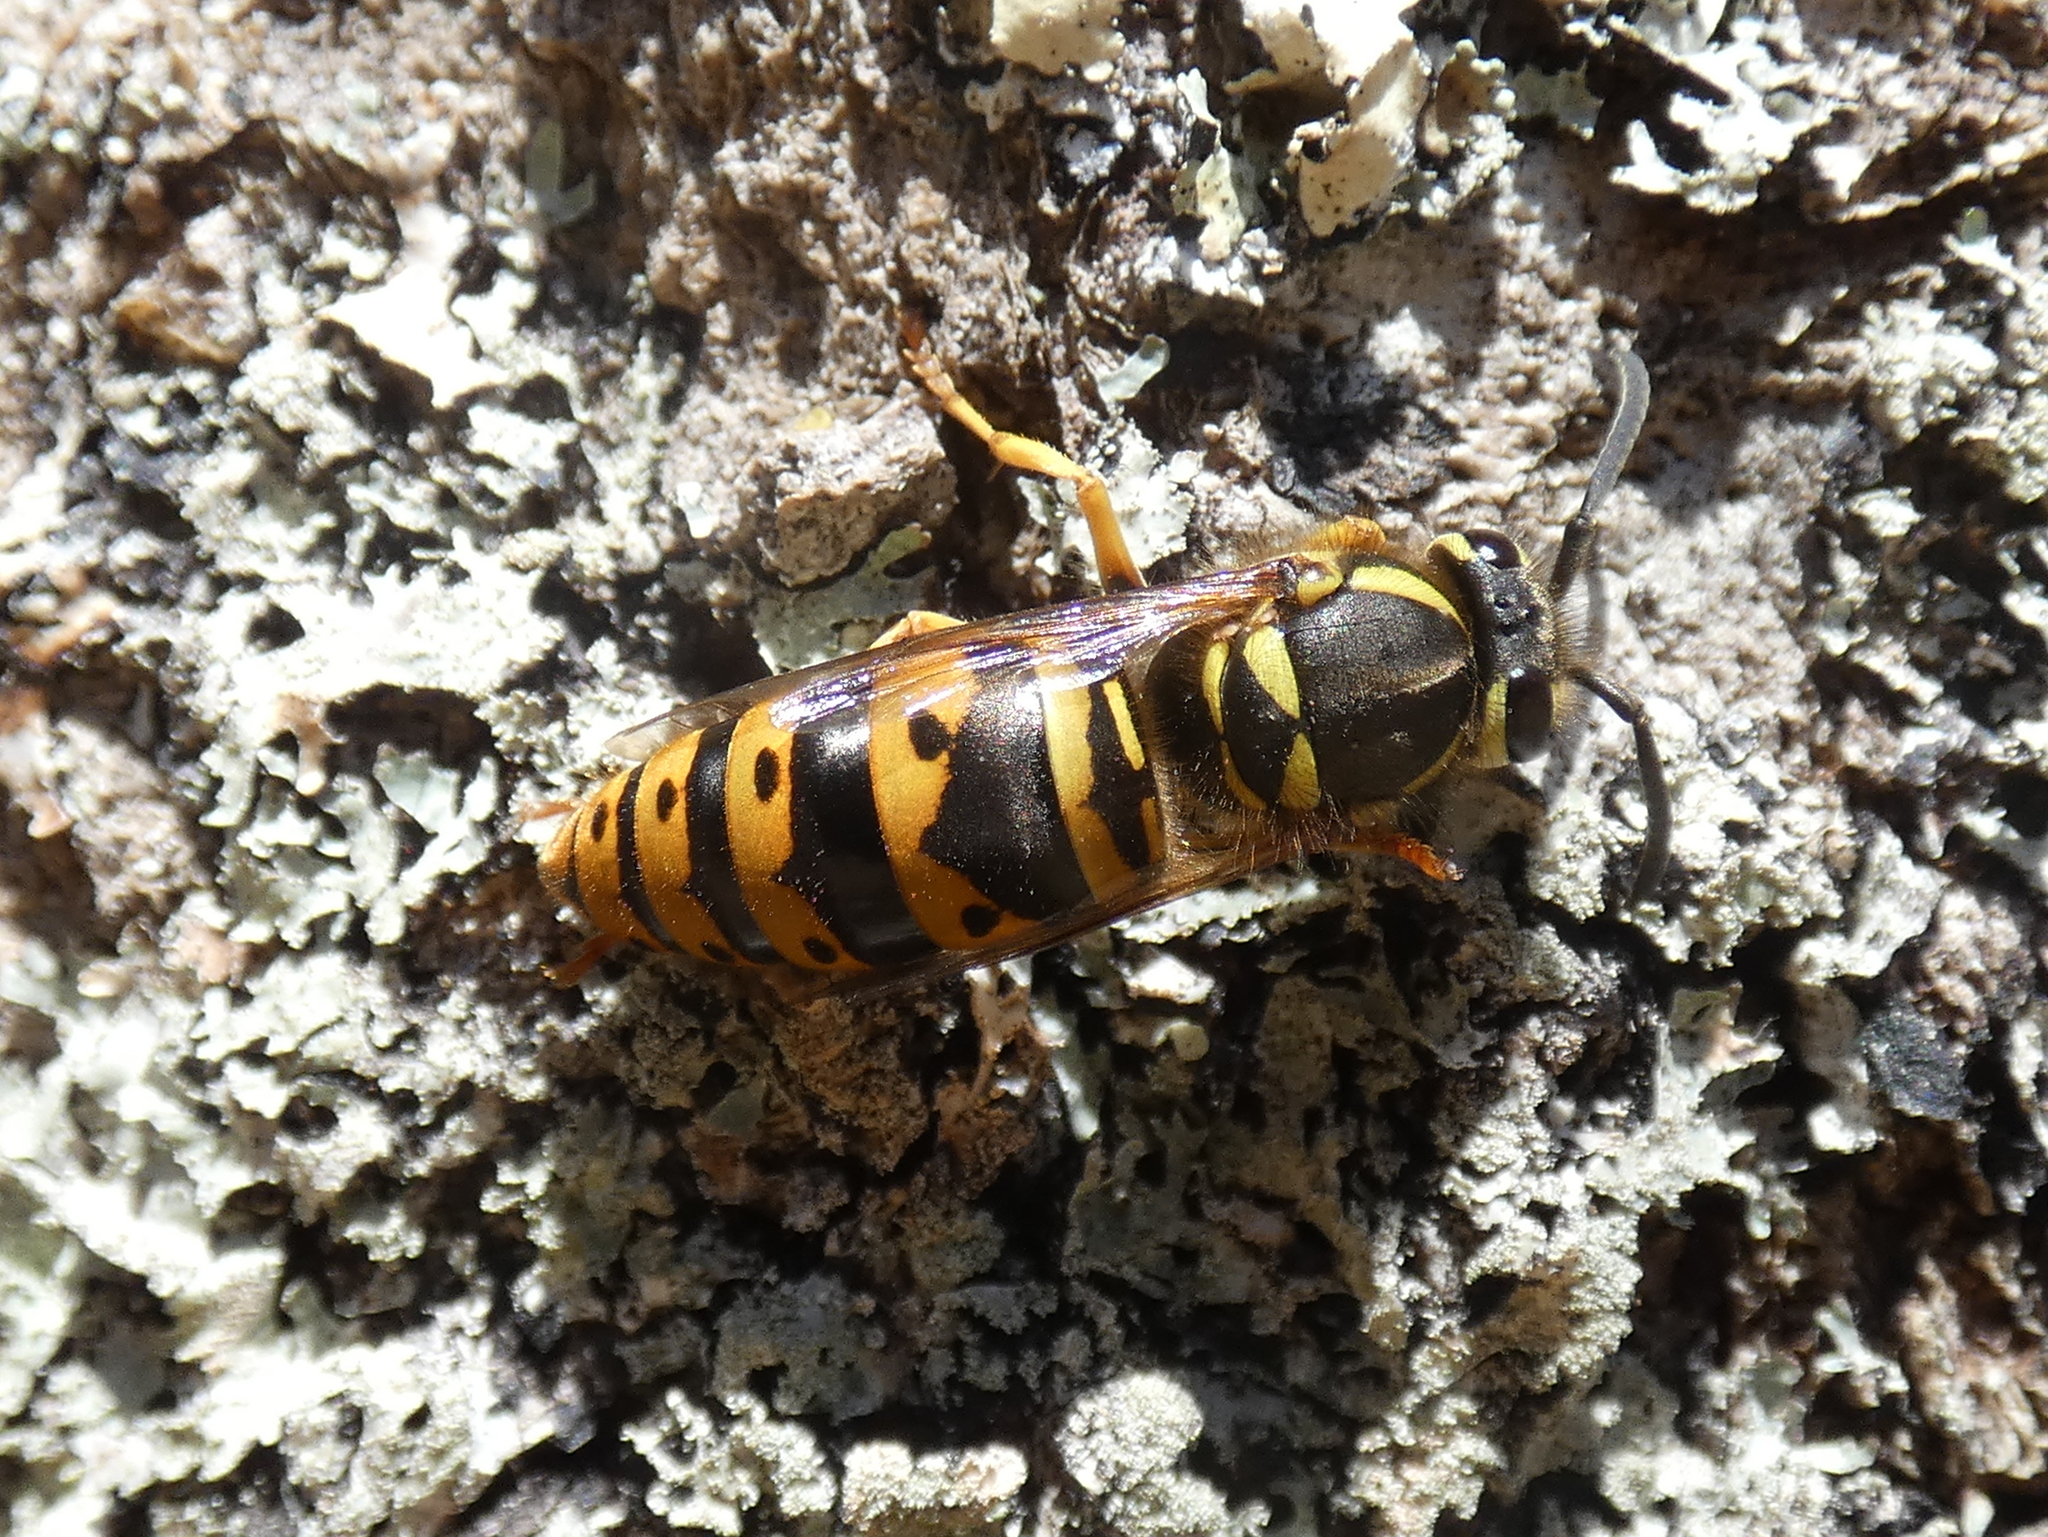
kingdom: Animalia
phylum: Arthropoda
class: Insecta
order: Hymenoptera
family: Vespidae
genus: Vespula
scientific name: Vespula maculifrons
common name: Eastern yellowjacket
